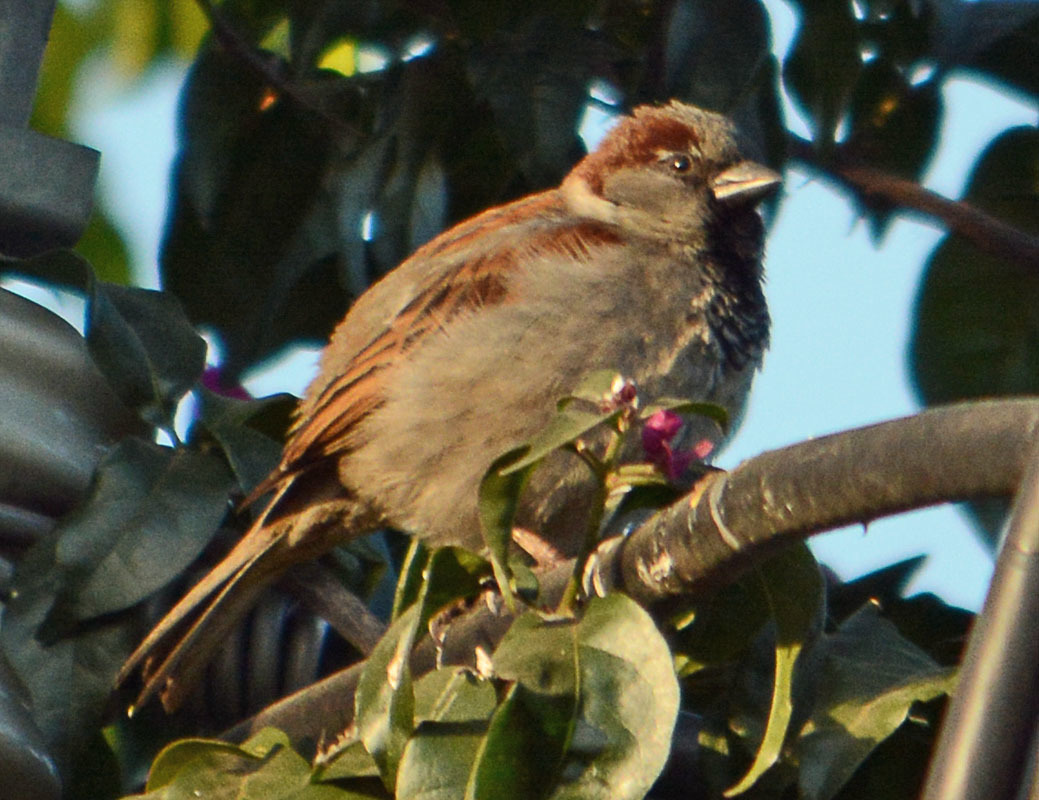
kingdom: Animalia
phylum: Chordata
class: Aves
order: Passeriformes
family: Passeridae
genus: Passer
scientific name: Passer domesticus
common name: House sparrow
